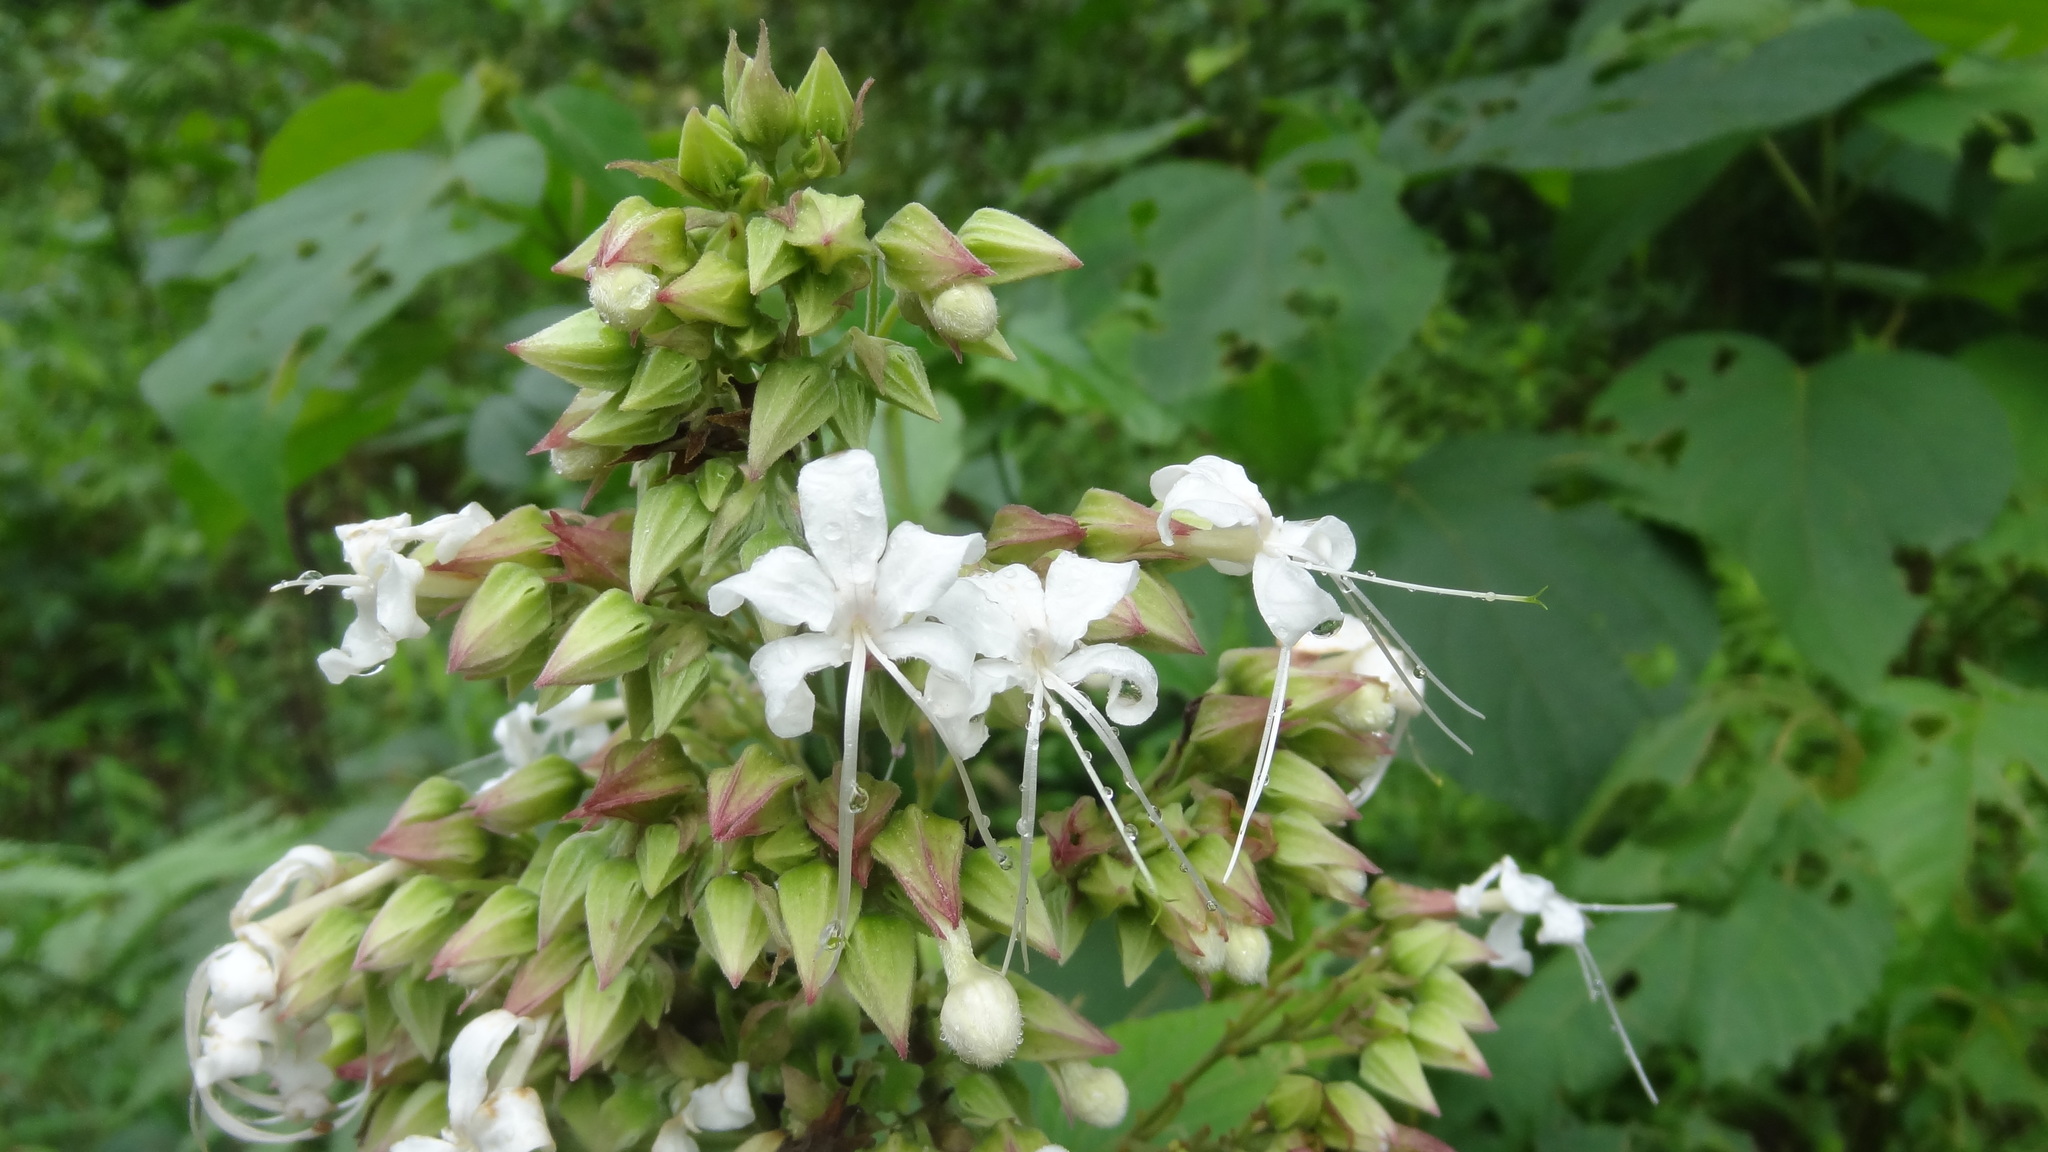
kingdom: Plantae
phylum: Tracheophyta
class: Magnoliopsida
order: Lamiales
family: Lamiaceae
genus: Clerodendrum
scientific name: Clerodendrum infortunatum
